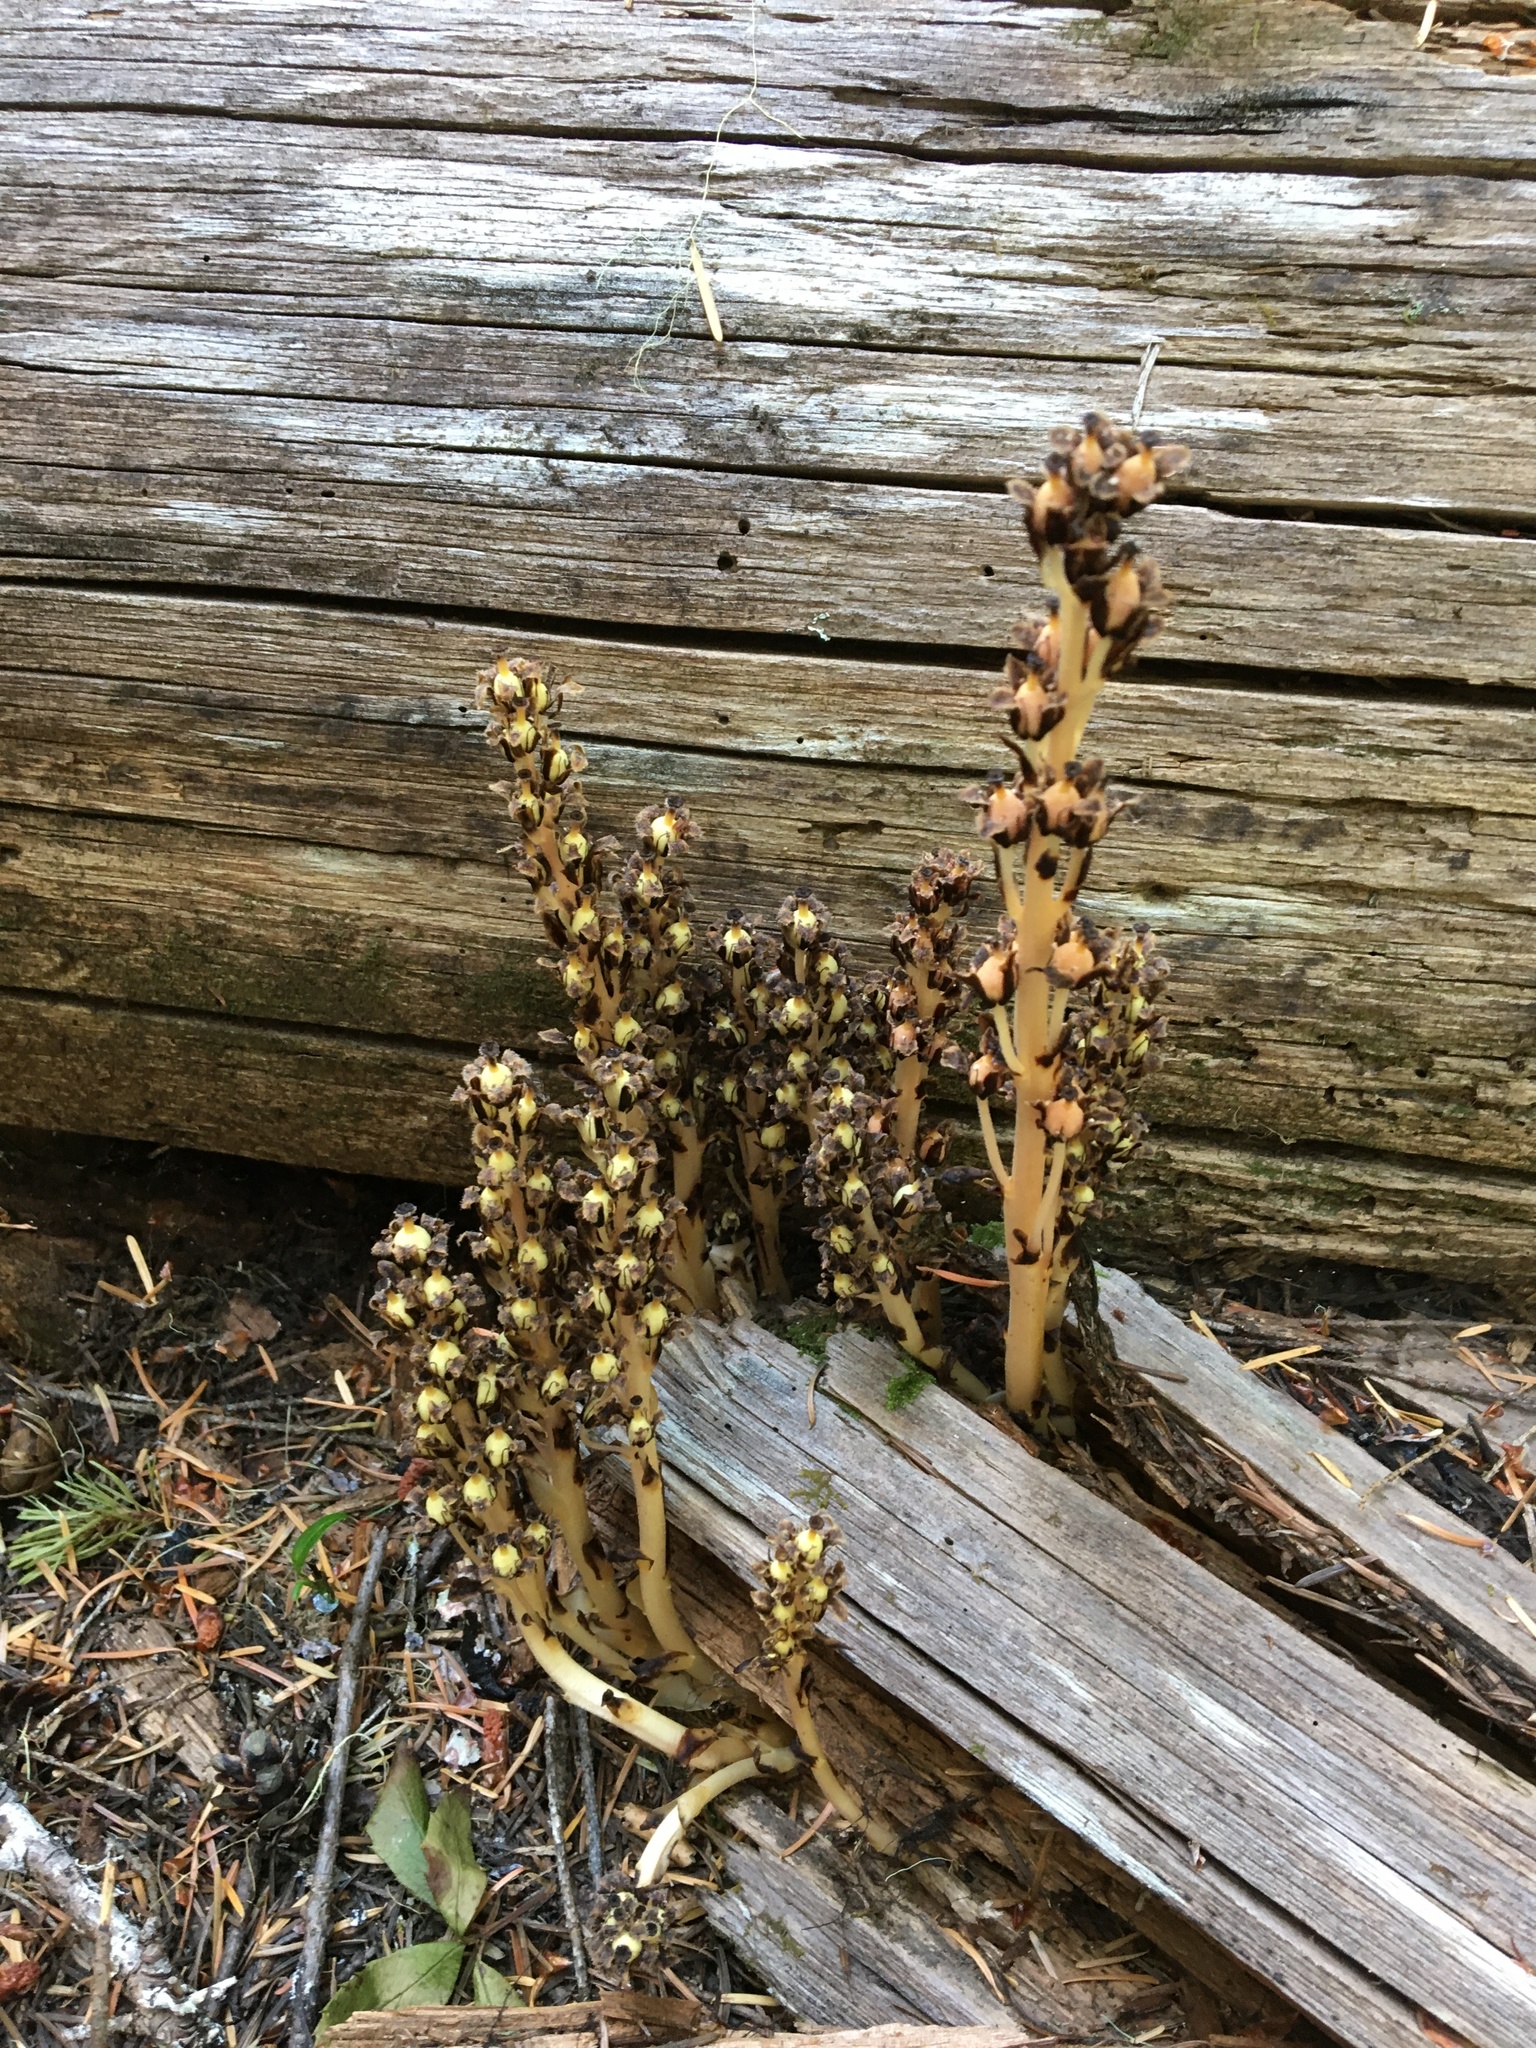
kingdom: Plantae
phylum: Tracheophyta
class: Magnoliopsida
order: Ericales
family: Ericaceae
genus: Hypopitys
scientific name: Hypopitys monotropa
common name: Yellow bird's-nest
